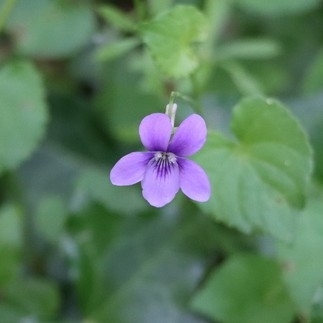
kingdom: Plantae
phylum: Tracheophyta
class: Magnoliopsida
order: Malpighiales
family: Violaceae
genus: Viola
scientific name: Viola riviniana
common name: Common dog-violet
